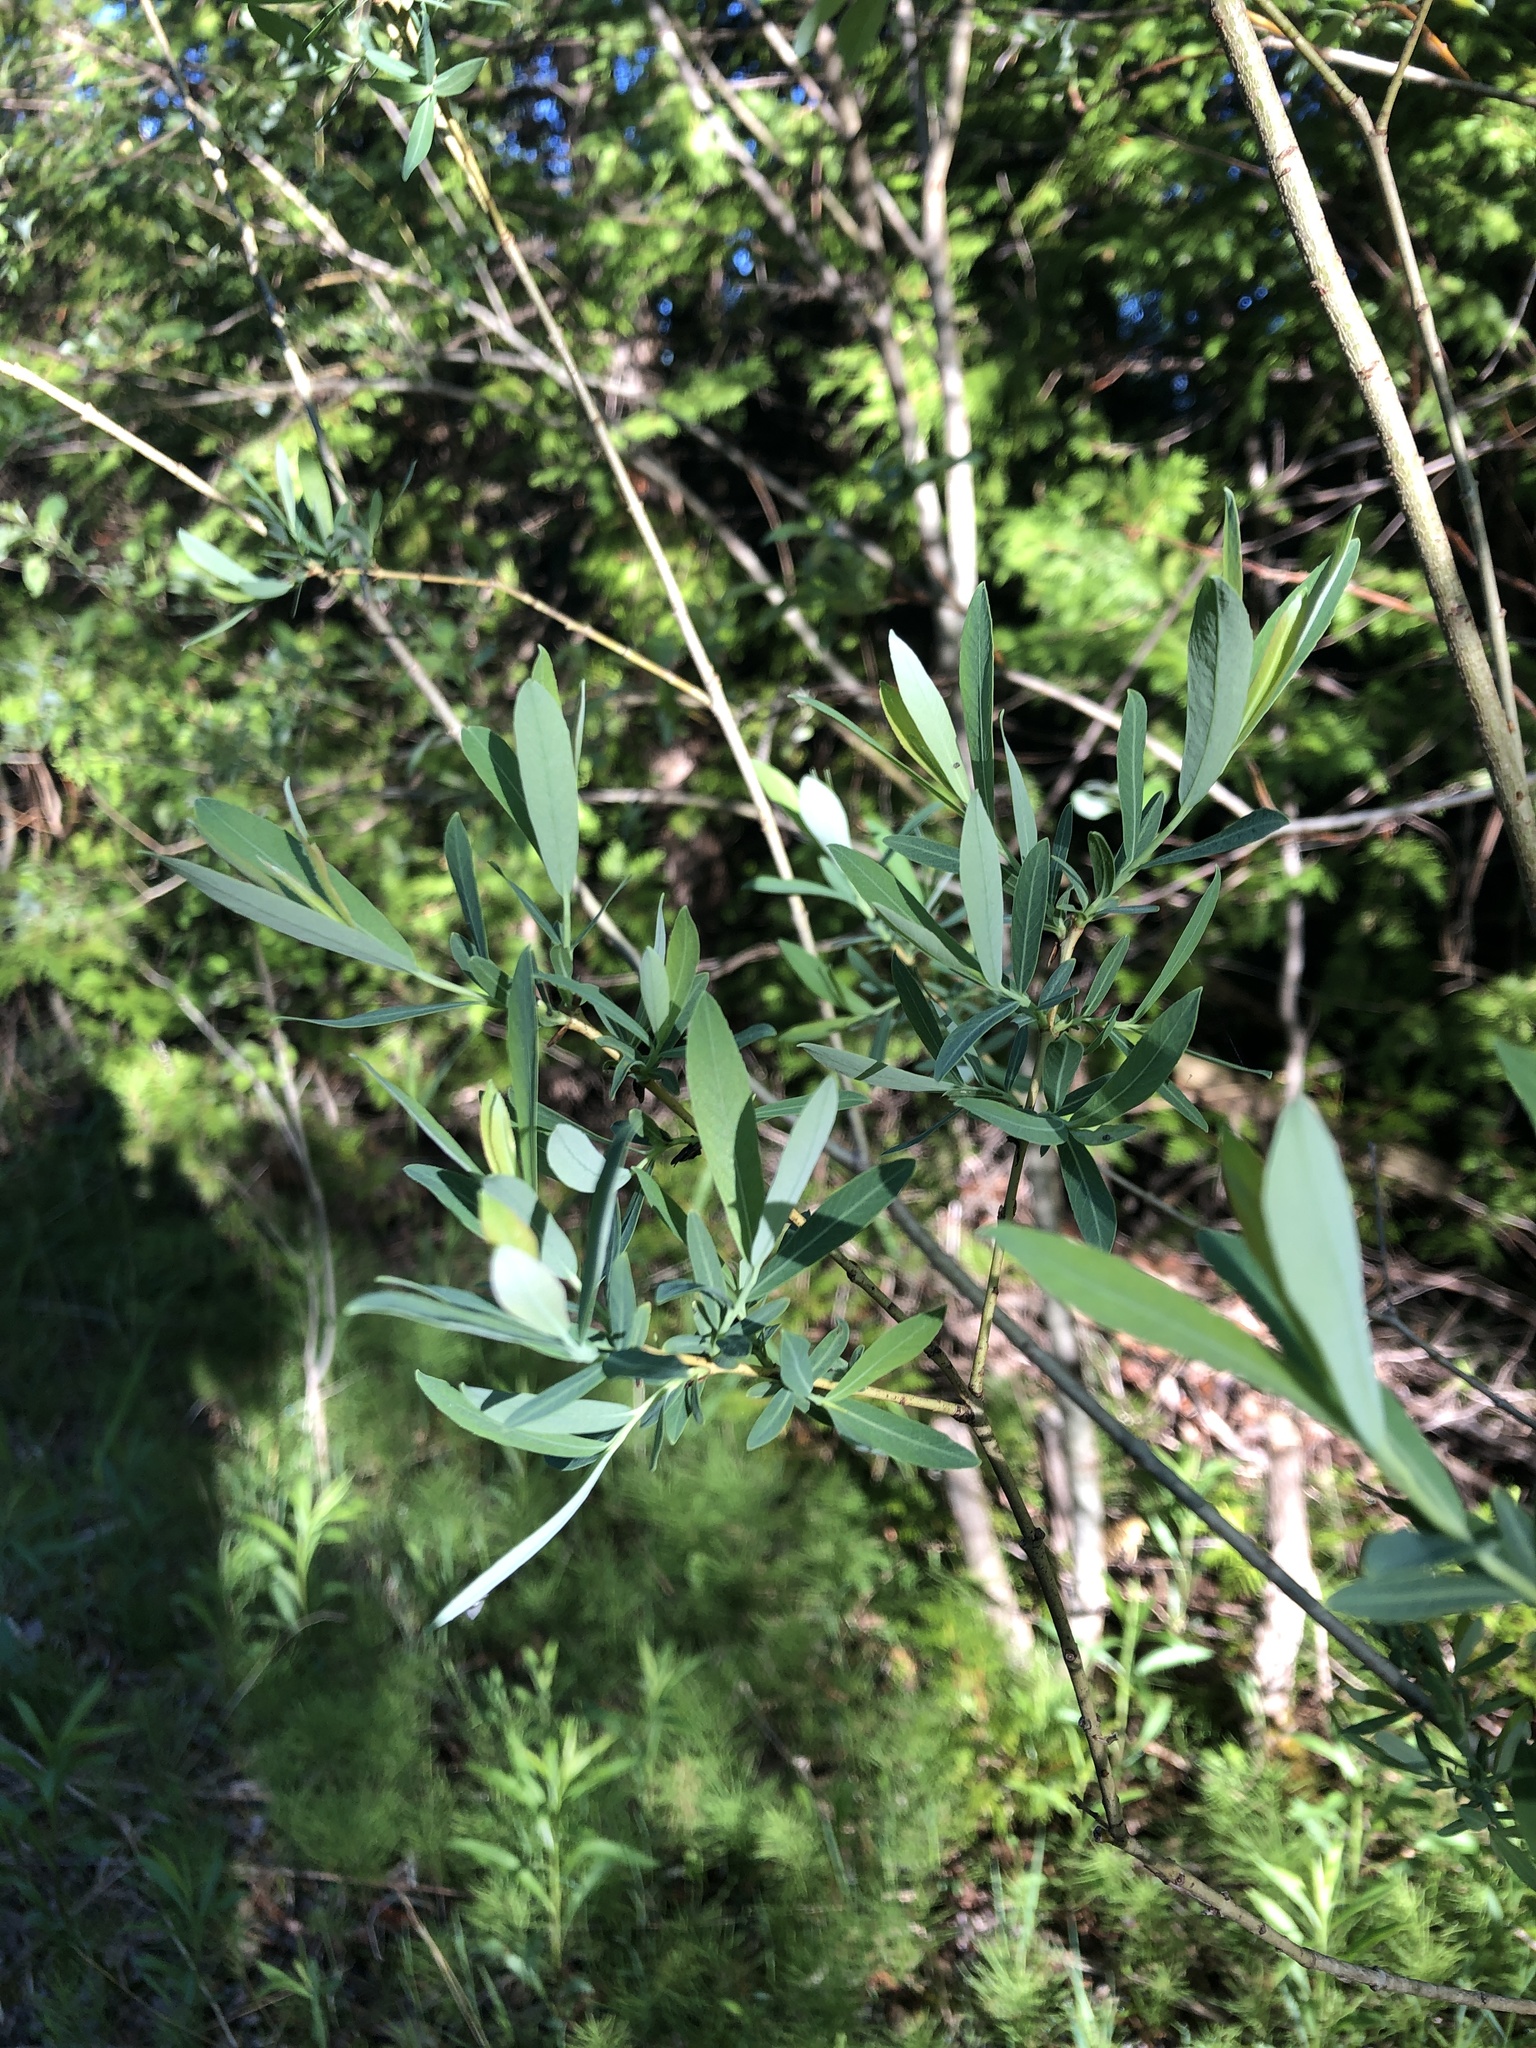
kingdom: Plantae
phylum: Tracheophyta
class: Magnoliopsida
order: Malpighiales
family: Salicaceae
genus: Salix
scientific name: Salix purpurea
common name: Purple willow
